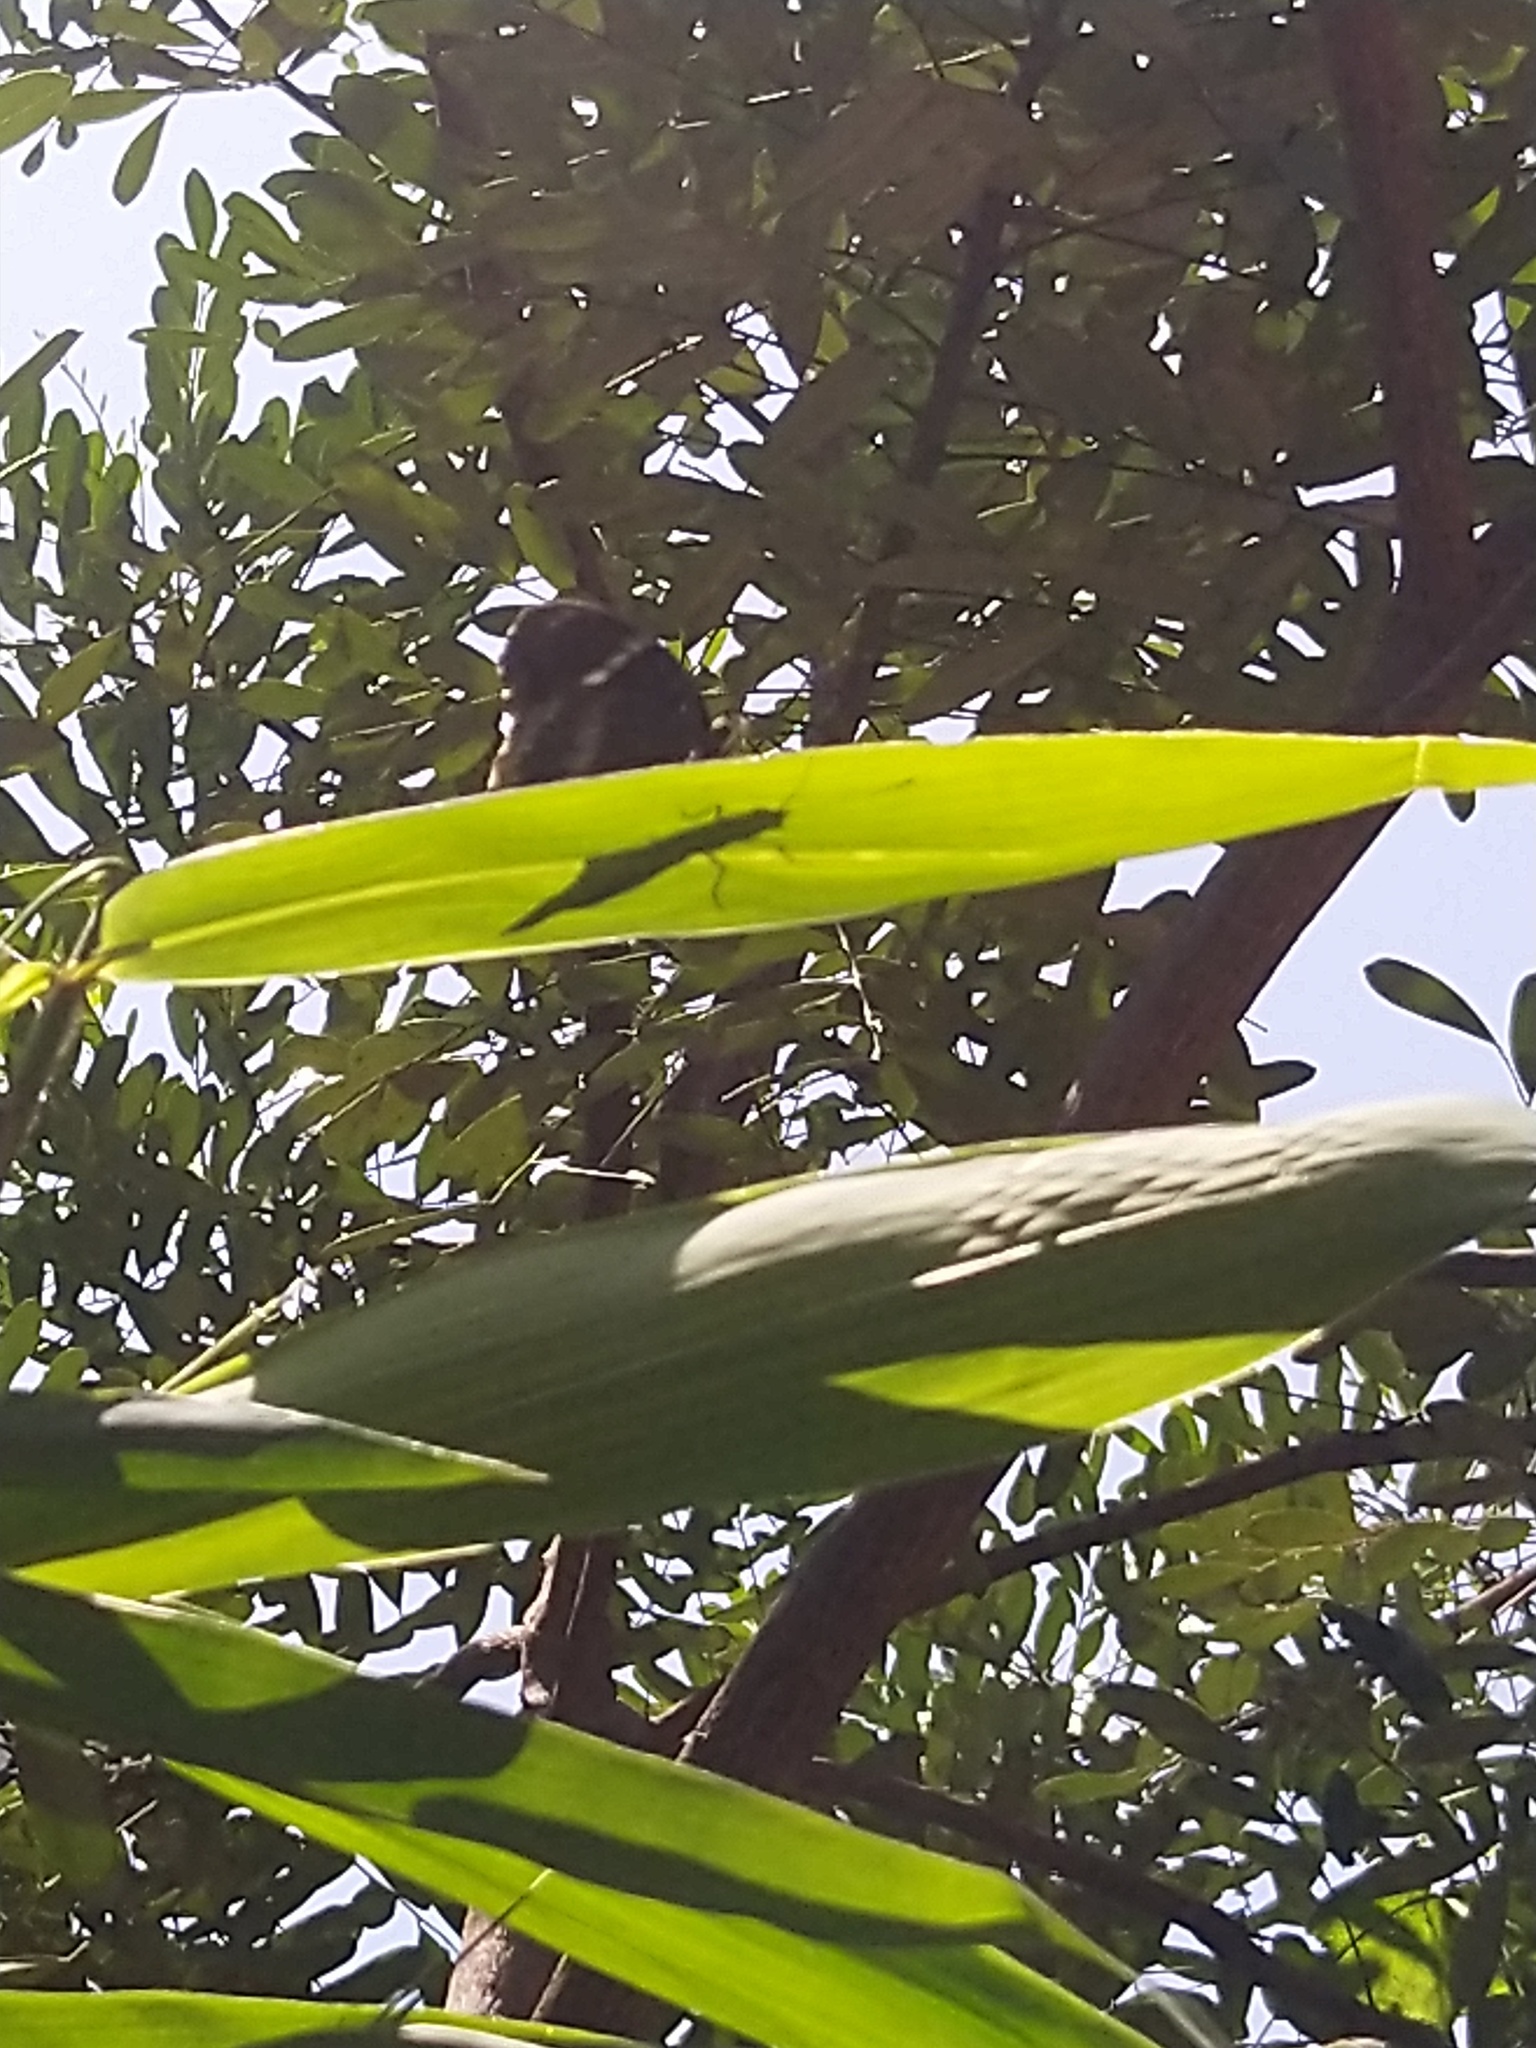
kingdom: Animalia
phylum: Arthropoda
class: Insecta
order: Lepidoptera
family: Nymphalidae
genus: Hypolimnas
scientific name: Hypolimnas bolina
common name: Great eggfly
